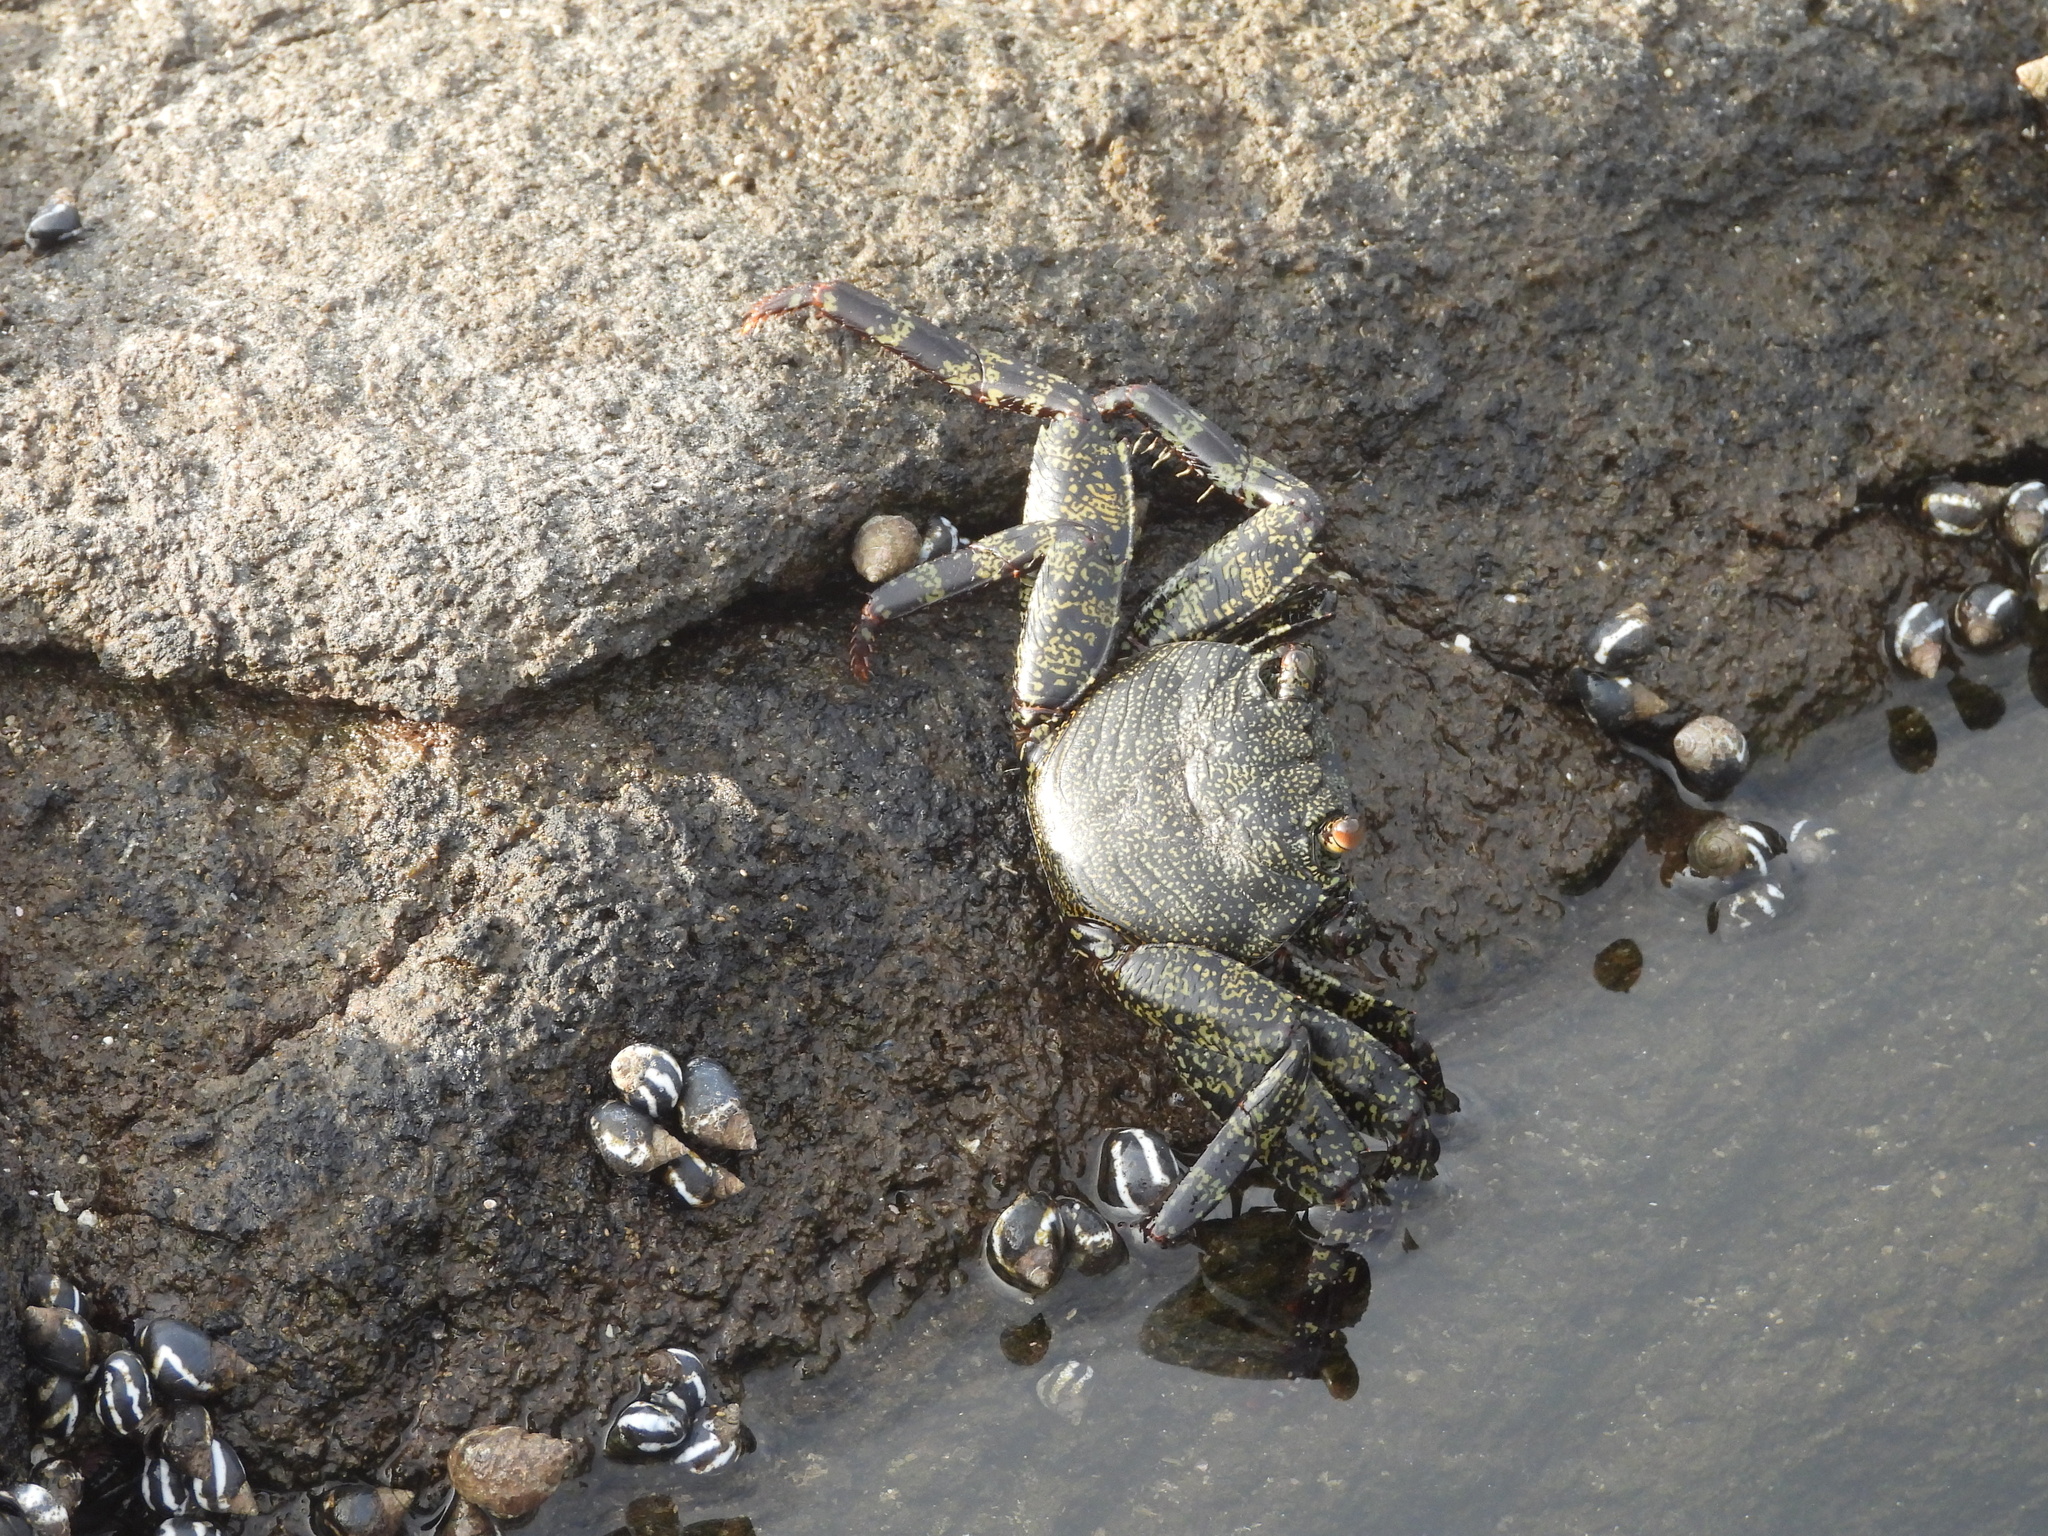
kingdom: Animalia
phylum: Arthropoda
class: Malacostraca
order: Decapoda
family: Grapsidae
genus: Grapsus
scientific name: Grapsus grapsus
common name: Sally lightfoot
